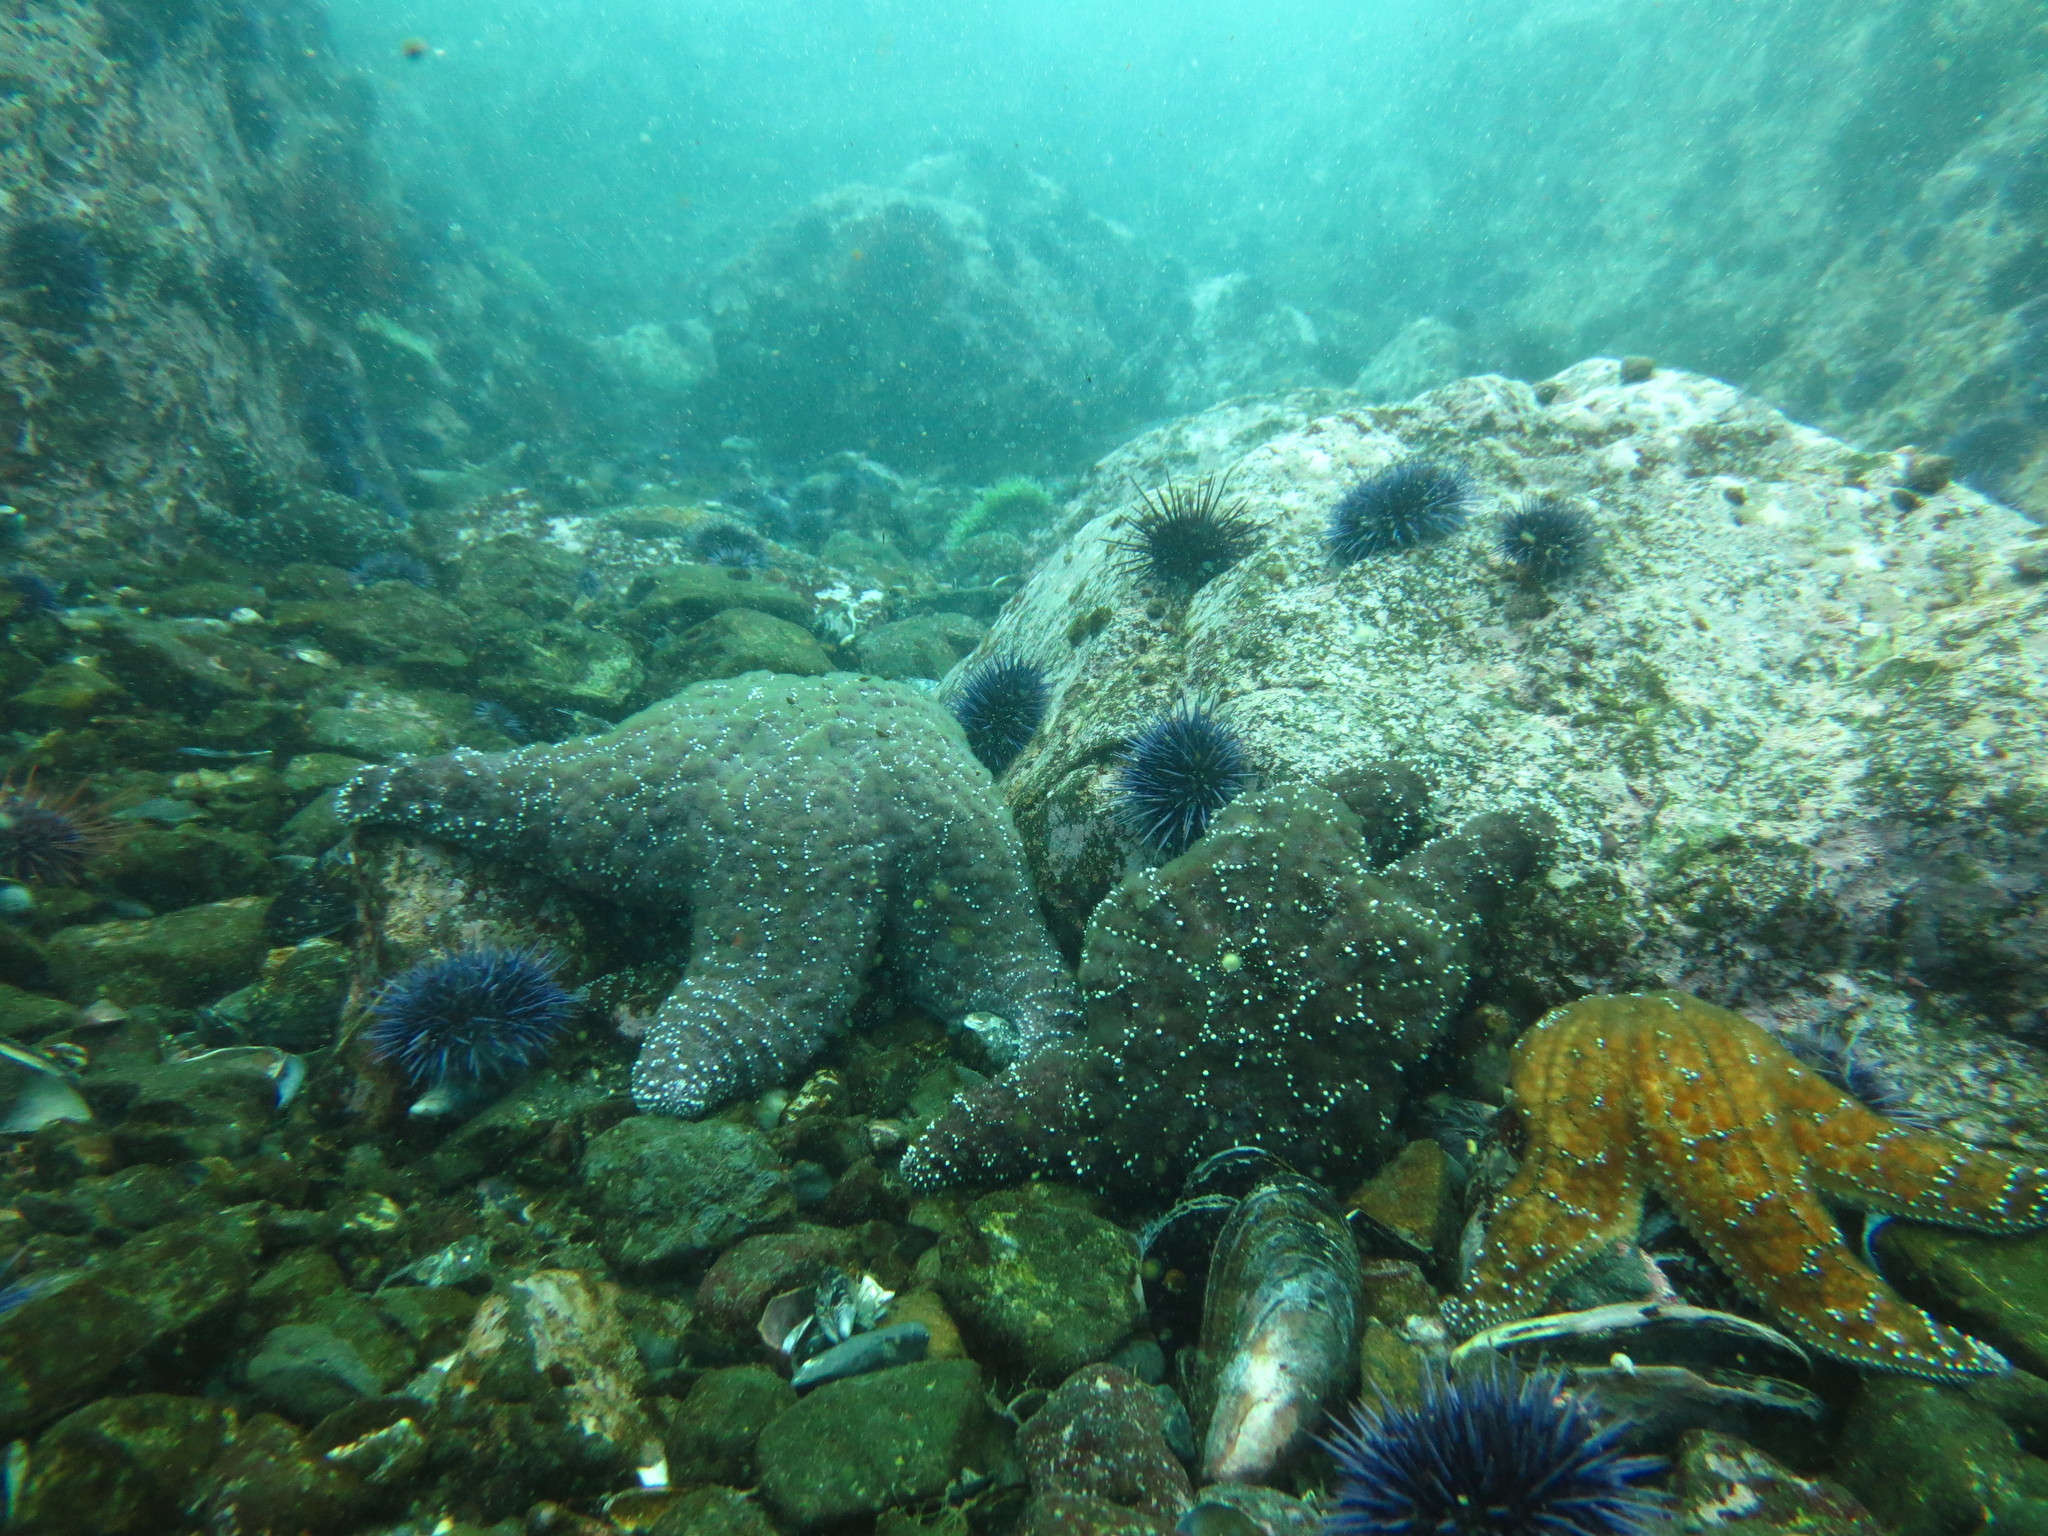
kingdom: Animalia
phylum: Echinodermata
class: Asteroidea
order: Forcipulatida
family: Asteriidae
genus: Pisaster
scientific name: Pisaster ochraceus
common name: Ochre stars
